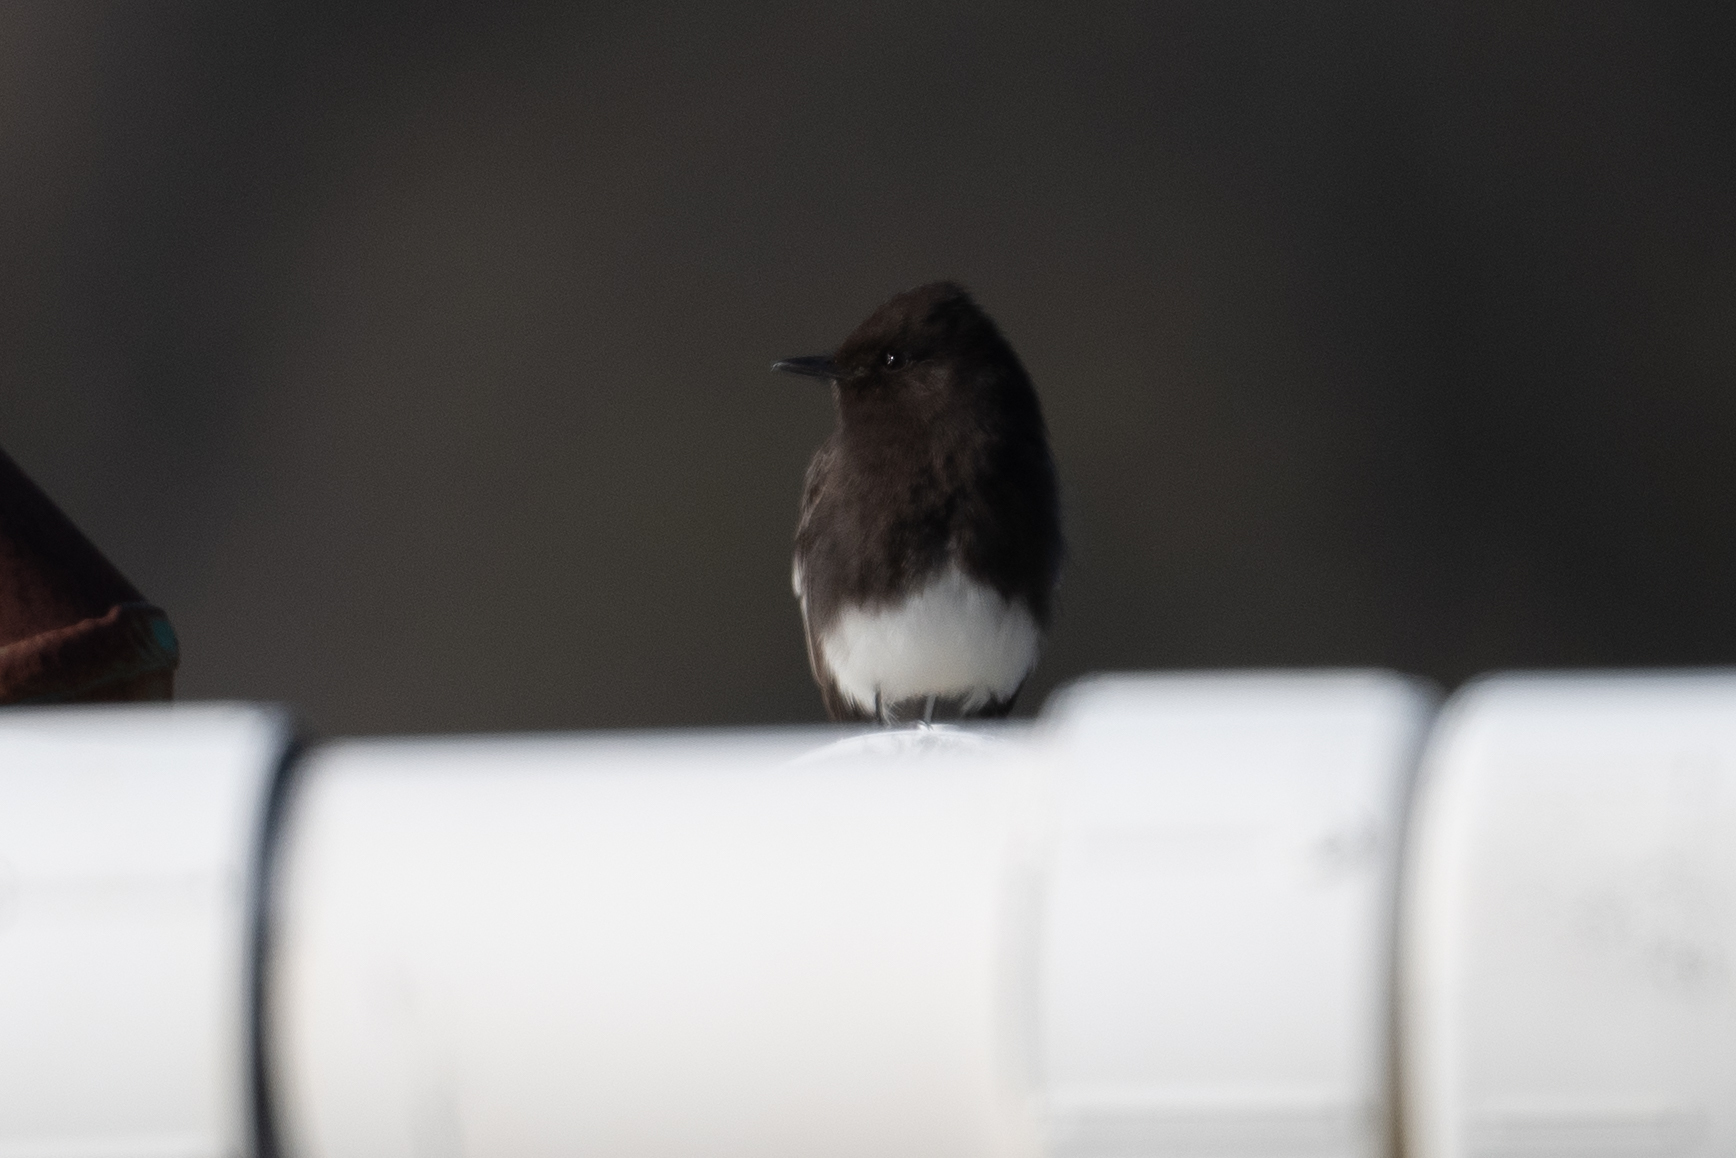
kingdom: Animalia
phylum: Chordata
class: Aves
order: Passeriformes
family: Tyrannidae
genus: Sayornis
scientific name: Sayornis nigricans
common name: Black phoebe
